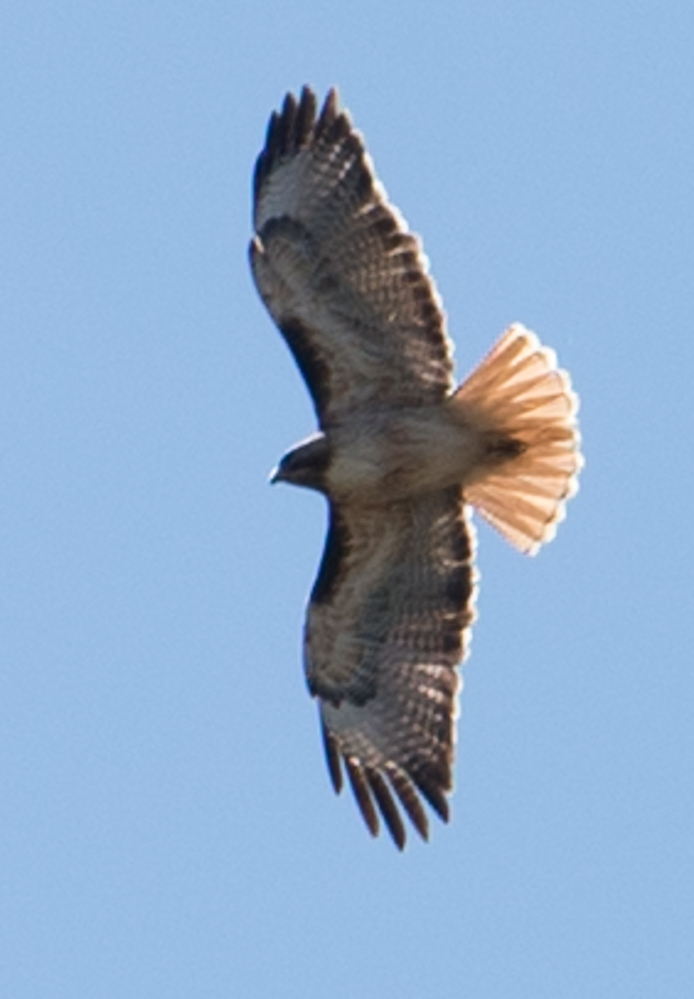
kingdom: Animalia
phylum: Chordata
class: Aves
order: Accipitriformes
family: Accipitridae
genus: Buteo
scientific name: Buteo jamaicensis
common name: Red-tailed hawk
